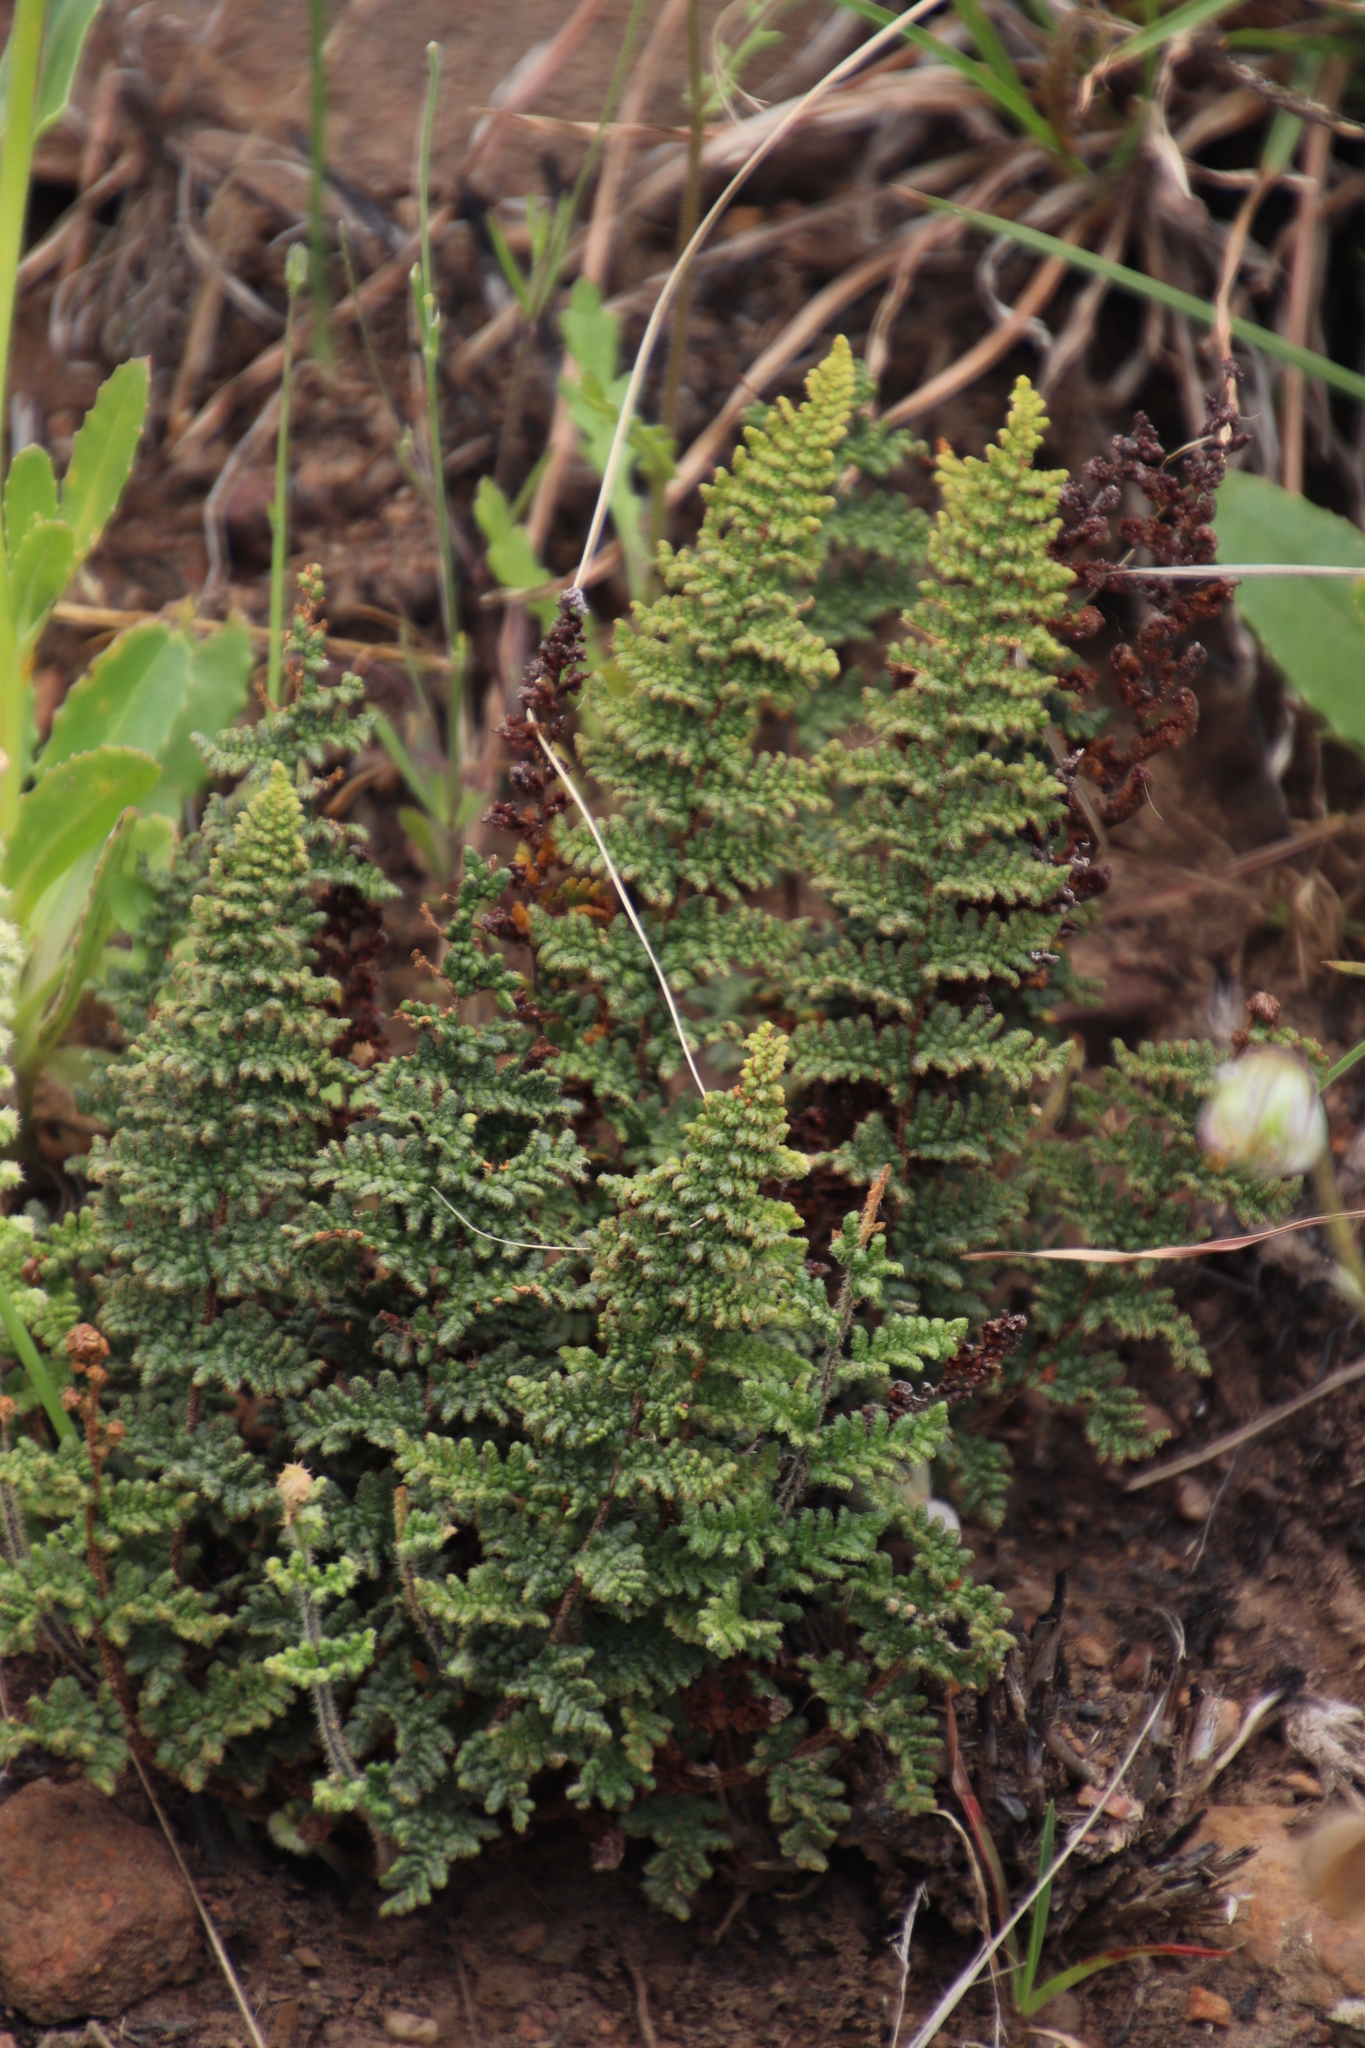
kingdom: Plantae
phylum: Tracheophyta
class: Polypodiopsida
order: Schizaeales
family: Anemiaceae
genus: Anemia
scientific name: Anemia caffrorum
